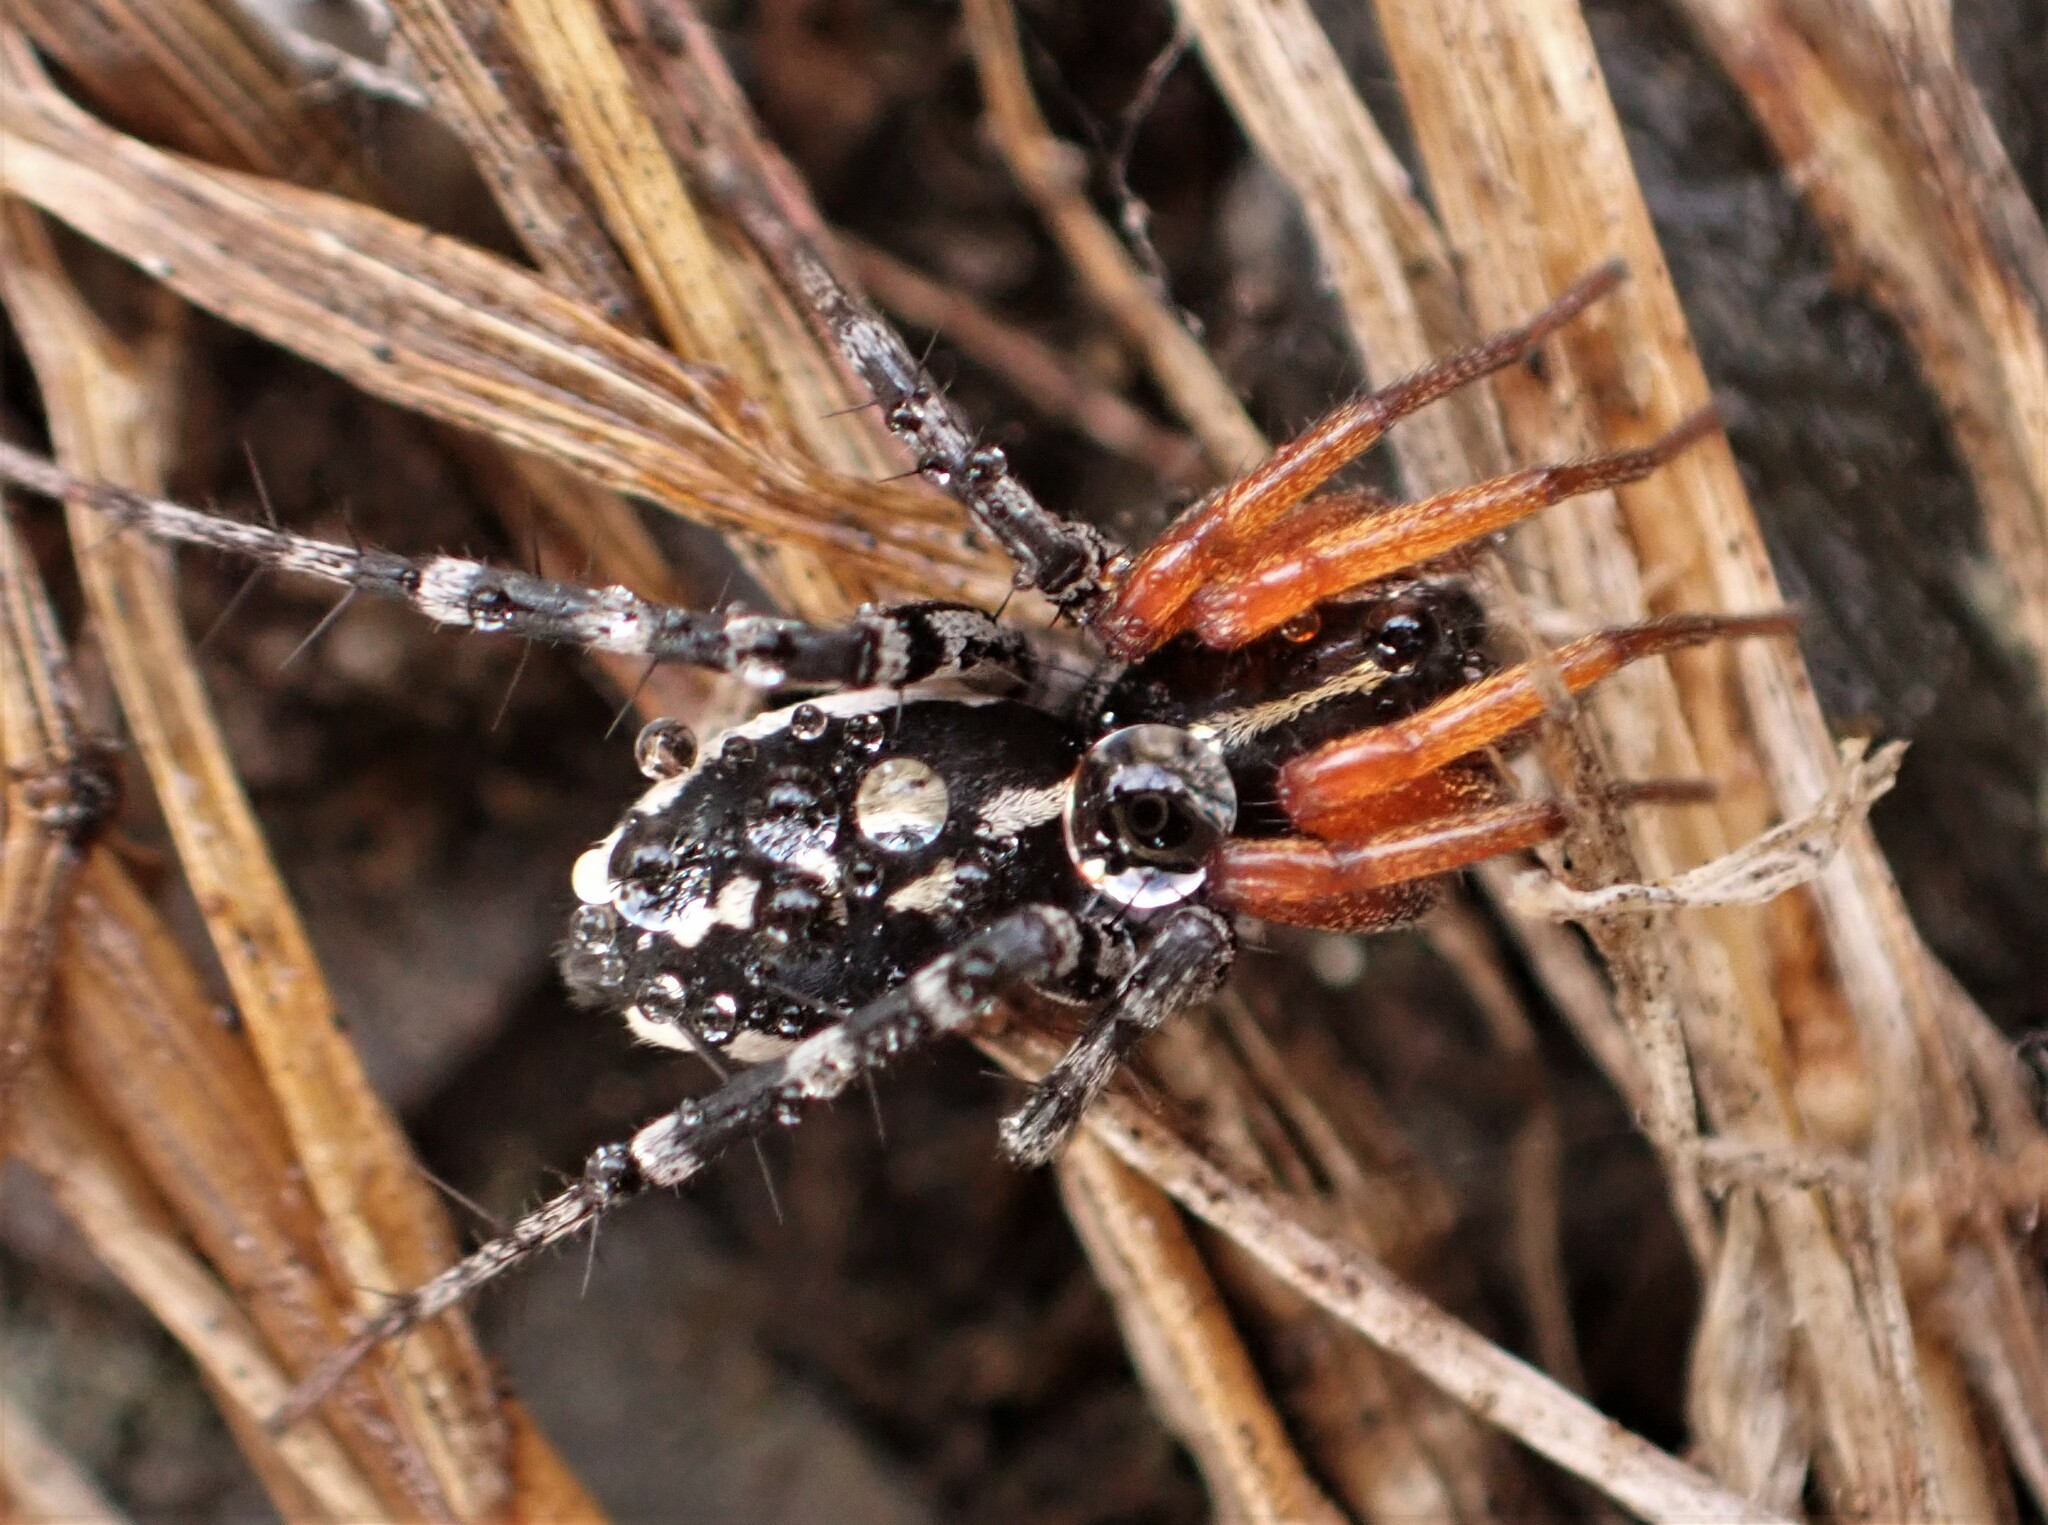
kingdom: Animalia
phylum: Arthropoda
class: Arachnida
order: Araneae
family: Corinnidae
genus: Nyssus
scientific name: Nyssus coloripes
